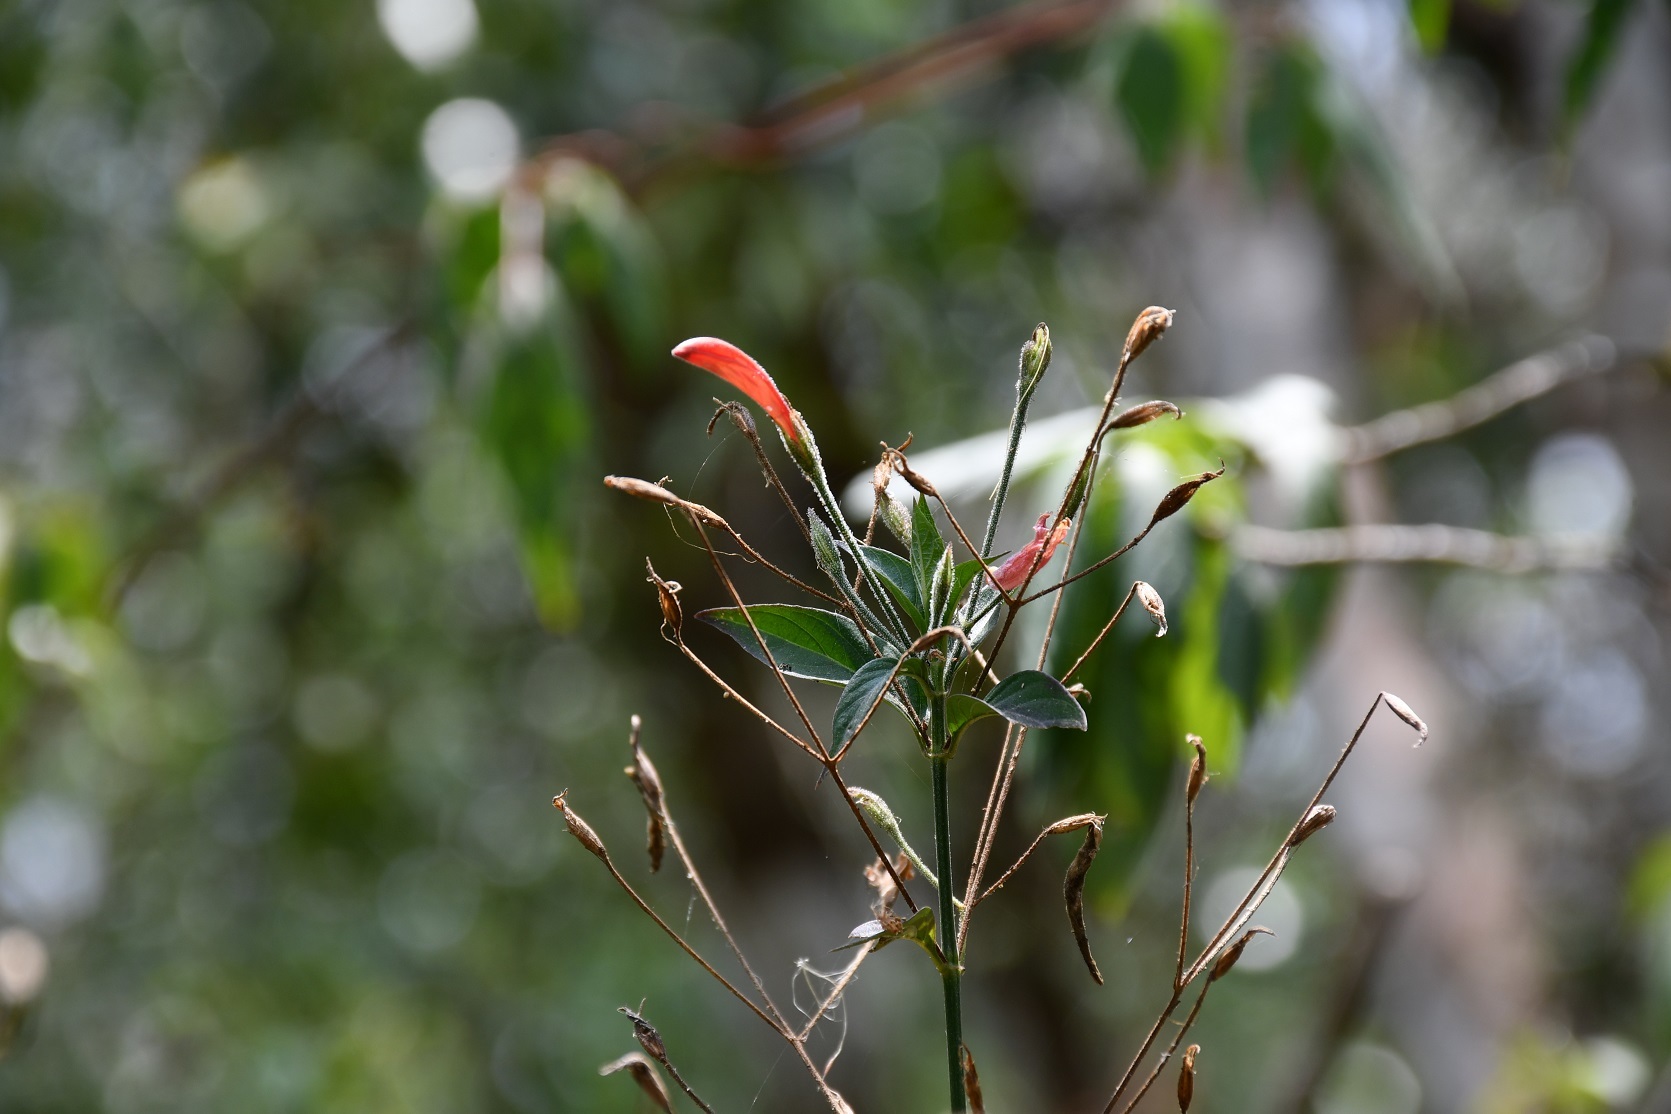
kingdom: Plantae
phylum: Tracheophyta
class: Magnoliopsida
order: Lamiales
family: Acanthaceae
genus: Dicliptera
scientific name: Dicliptera sciadephora
